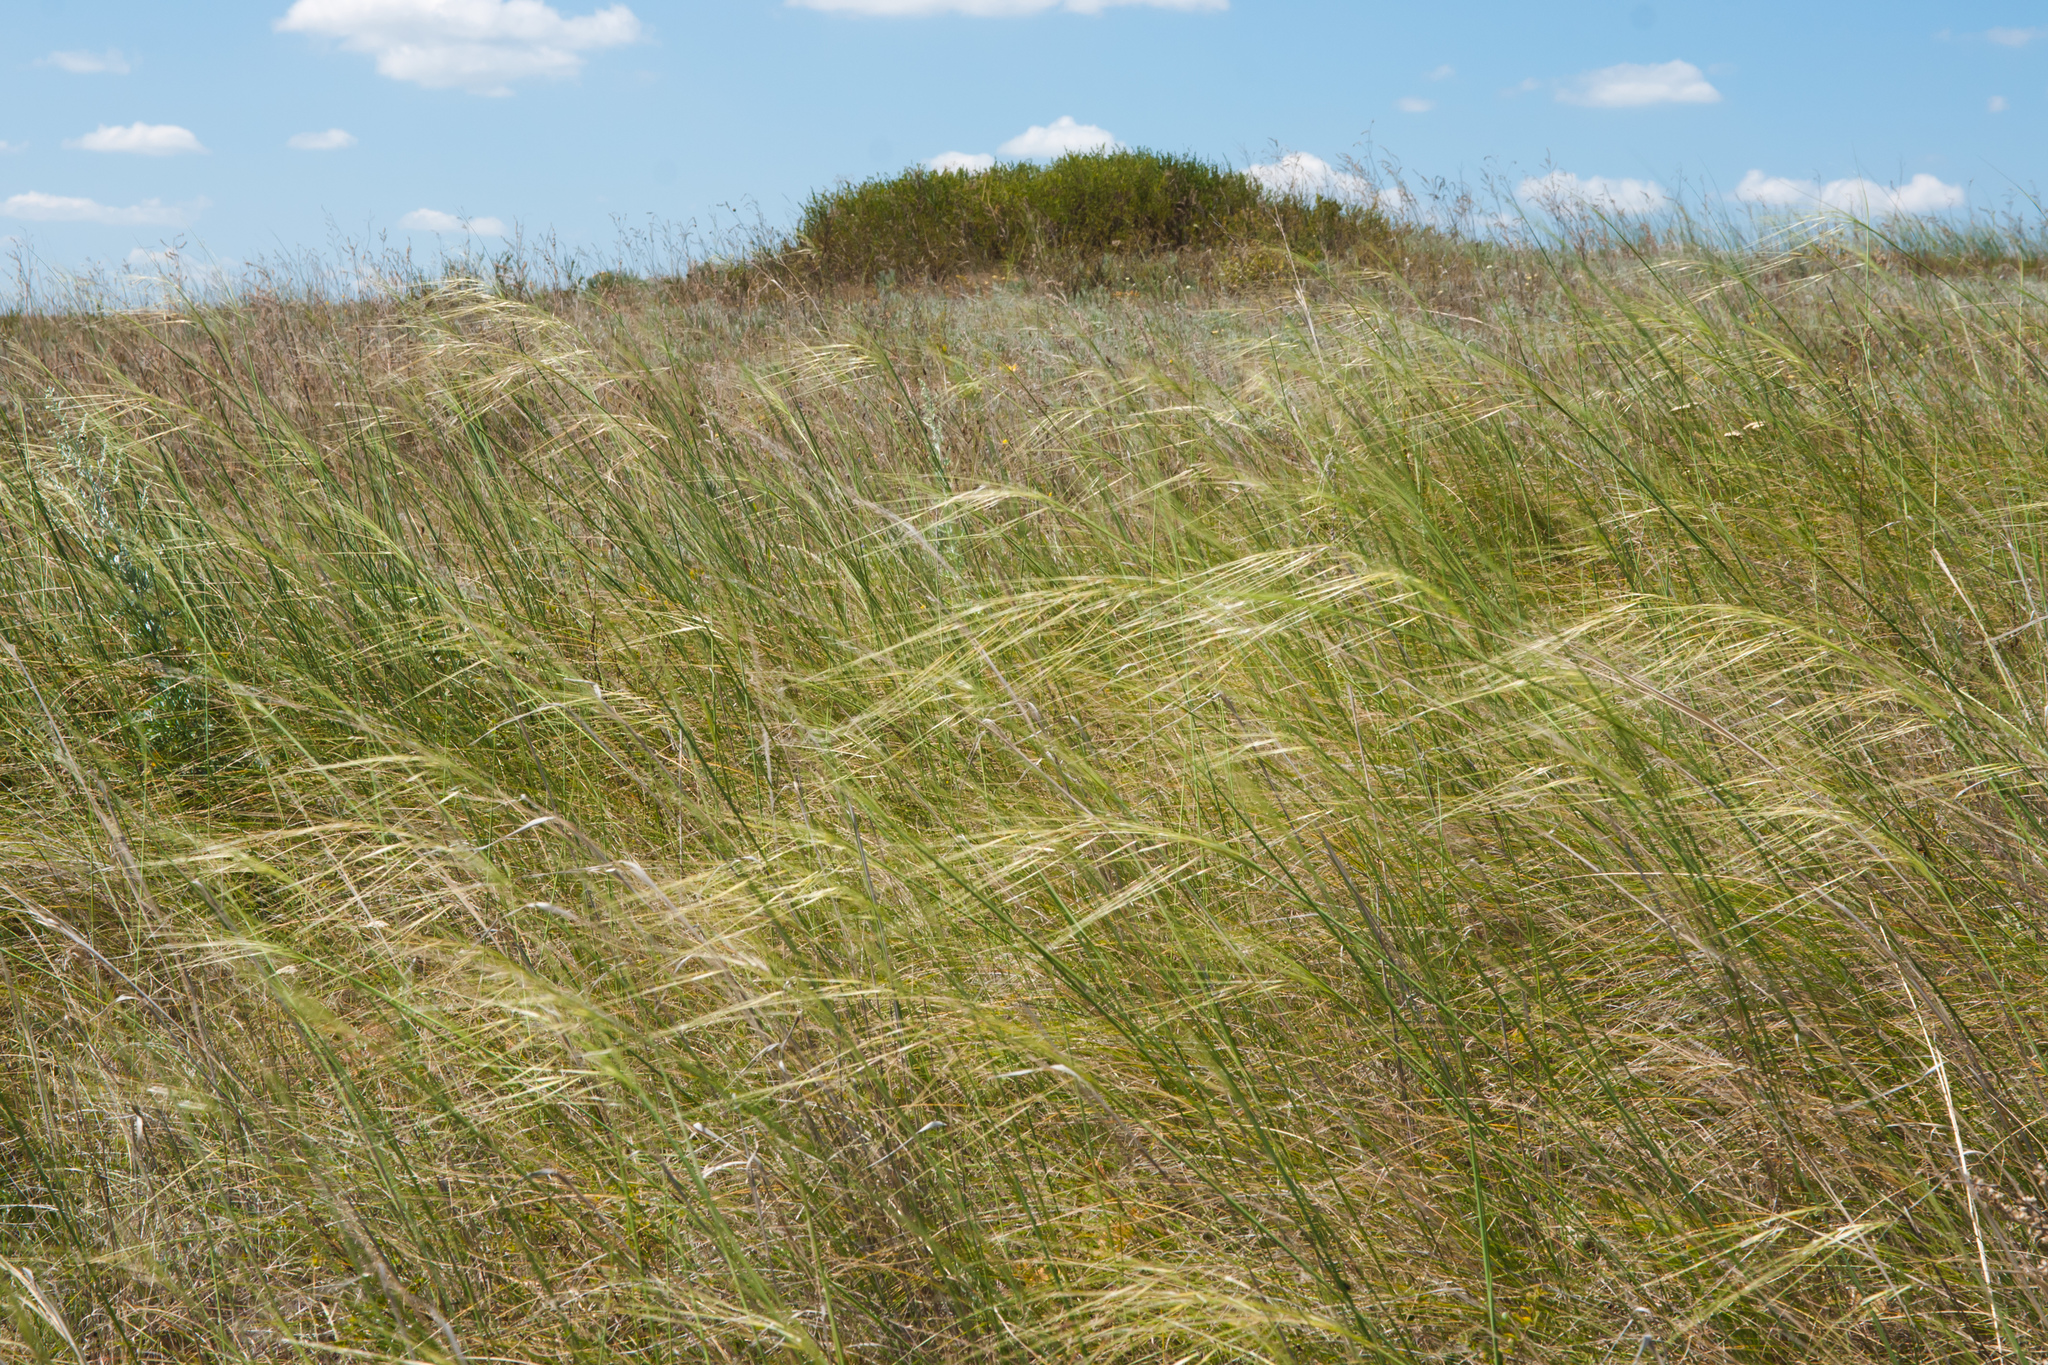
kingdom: Plantae
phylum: Tracheophyta
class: Liliopsida
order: Poales
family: Poaceae
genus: Stipa
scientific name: Stipa capillata
